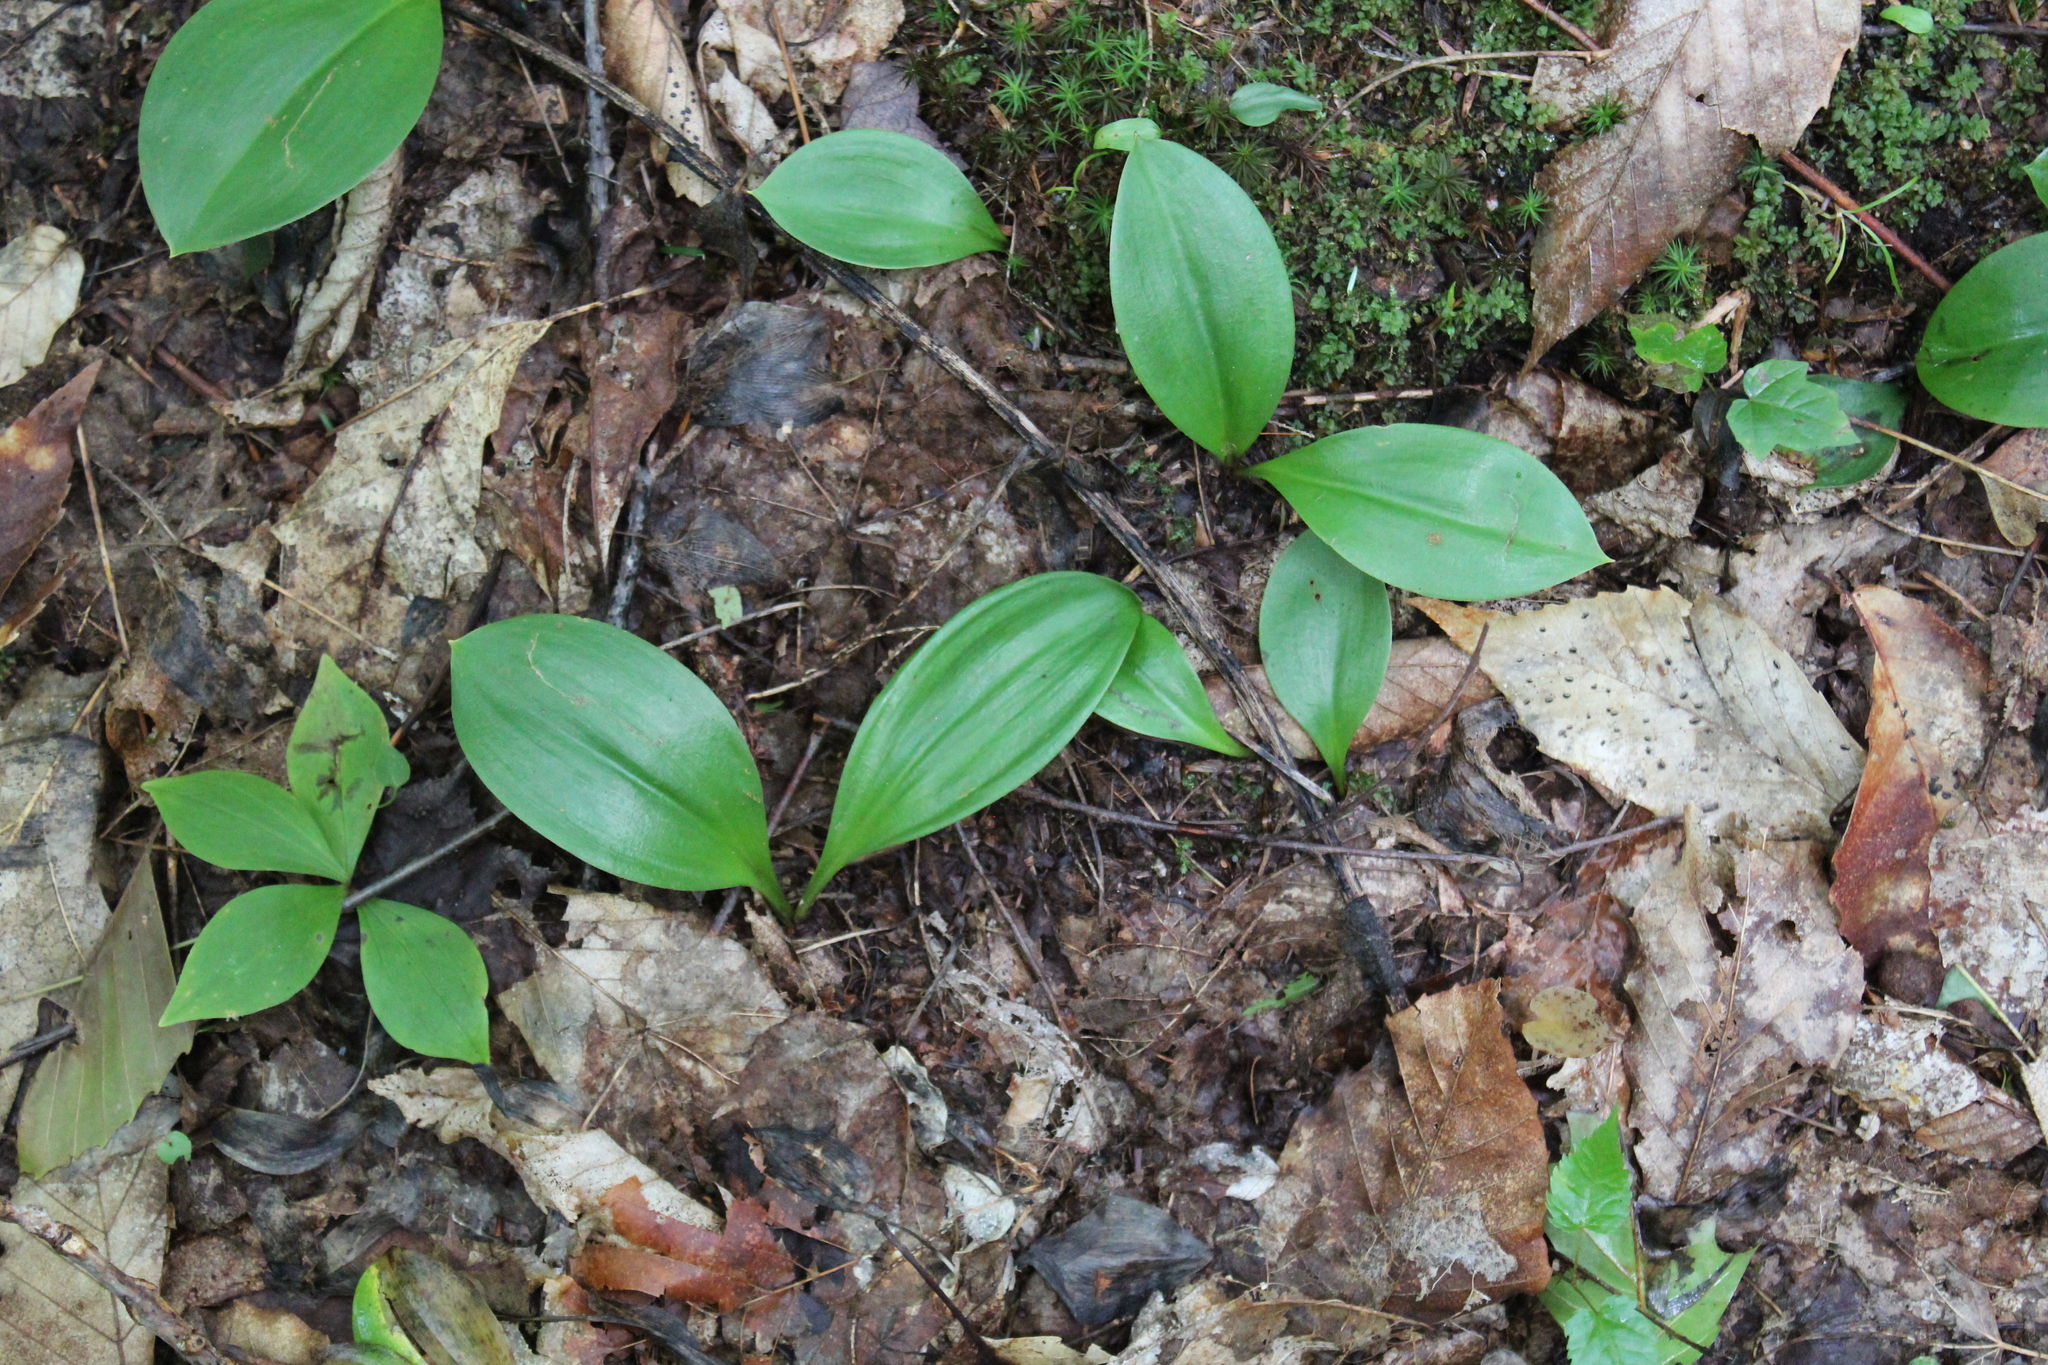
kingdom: Plantae
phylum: Tracheophyta
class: Liliopsida
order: Liliales
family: Liliaceae
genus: Clintonia
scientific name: Clintonia borealis
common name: Yellow clintonia
